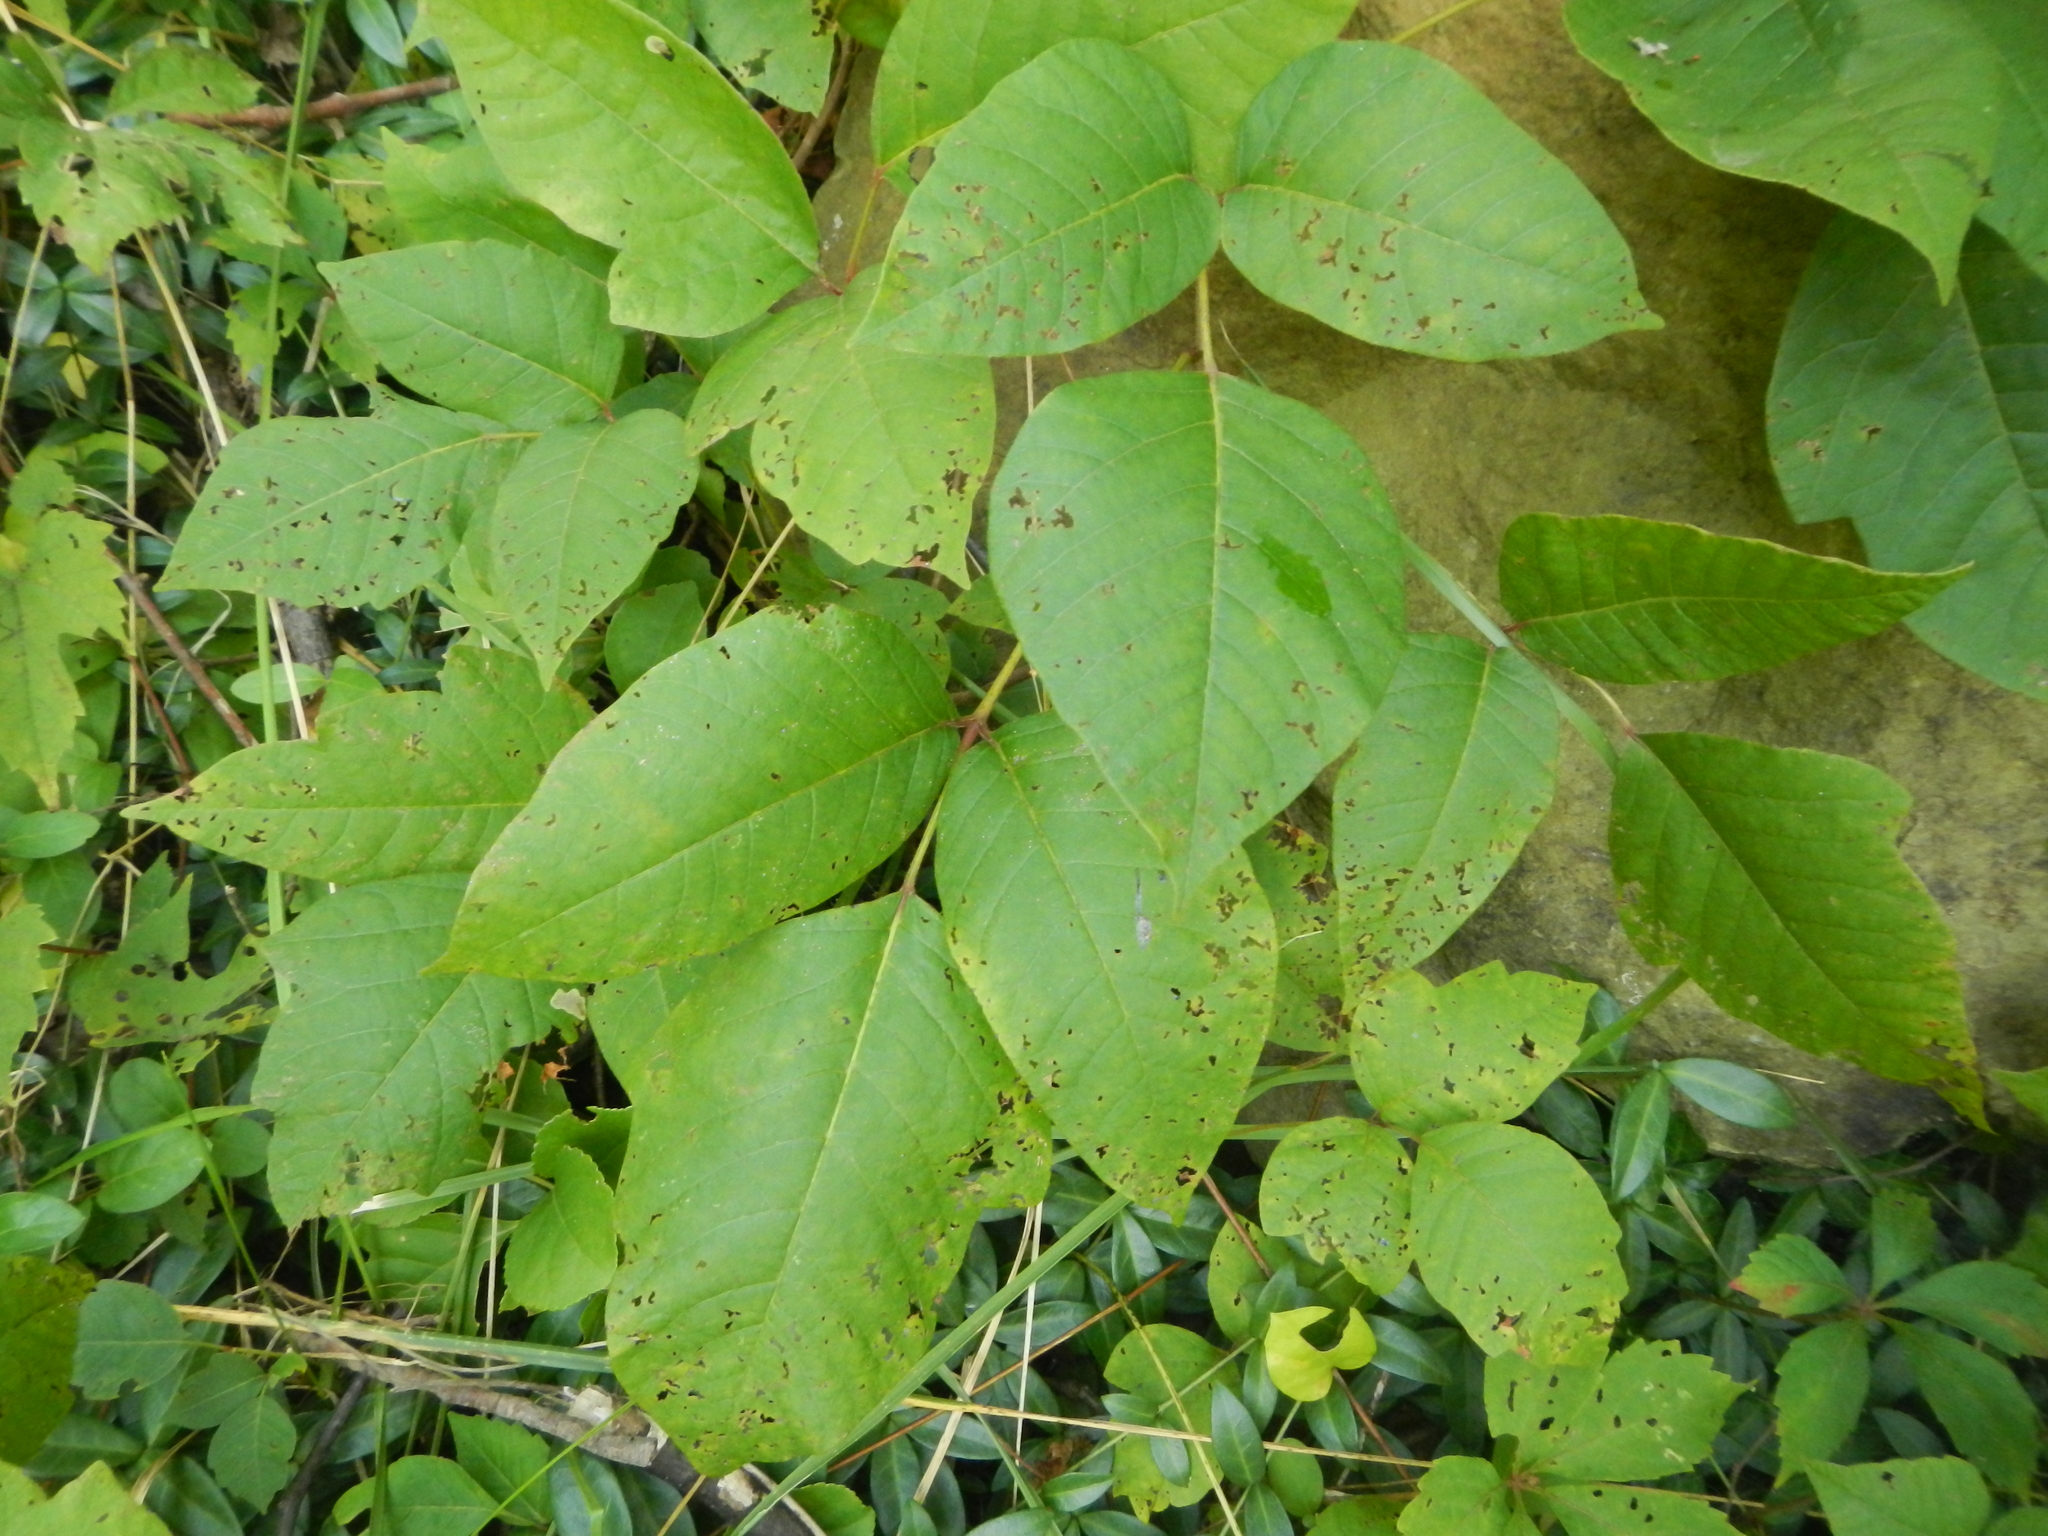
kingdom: Plantae
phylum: Tracheophyta
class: Magnoliopsida
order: Sapindales
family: Anacardiaceae
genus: Toxicodendron
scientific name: Toxicodendron radicans
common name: Poison ivy
